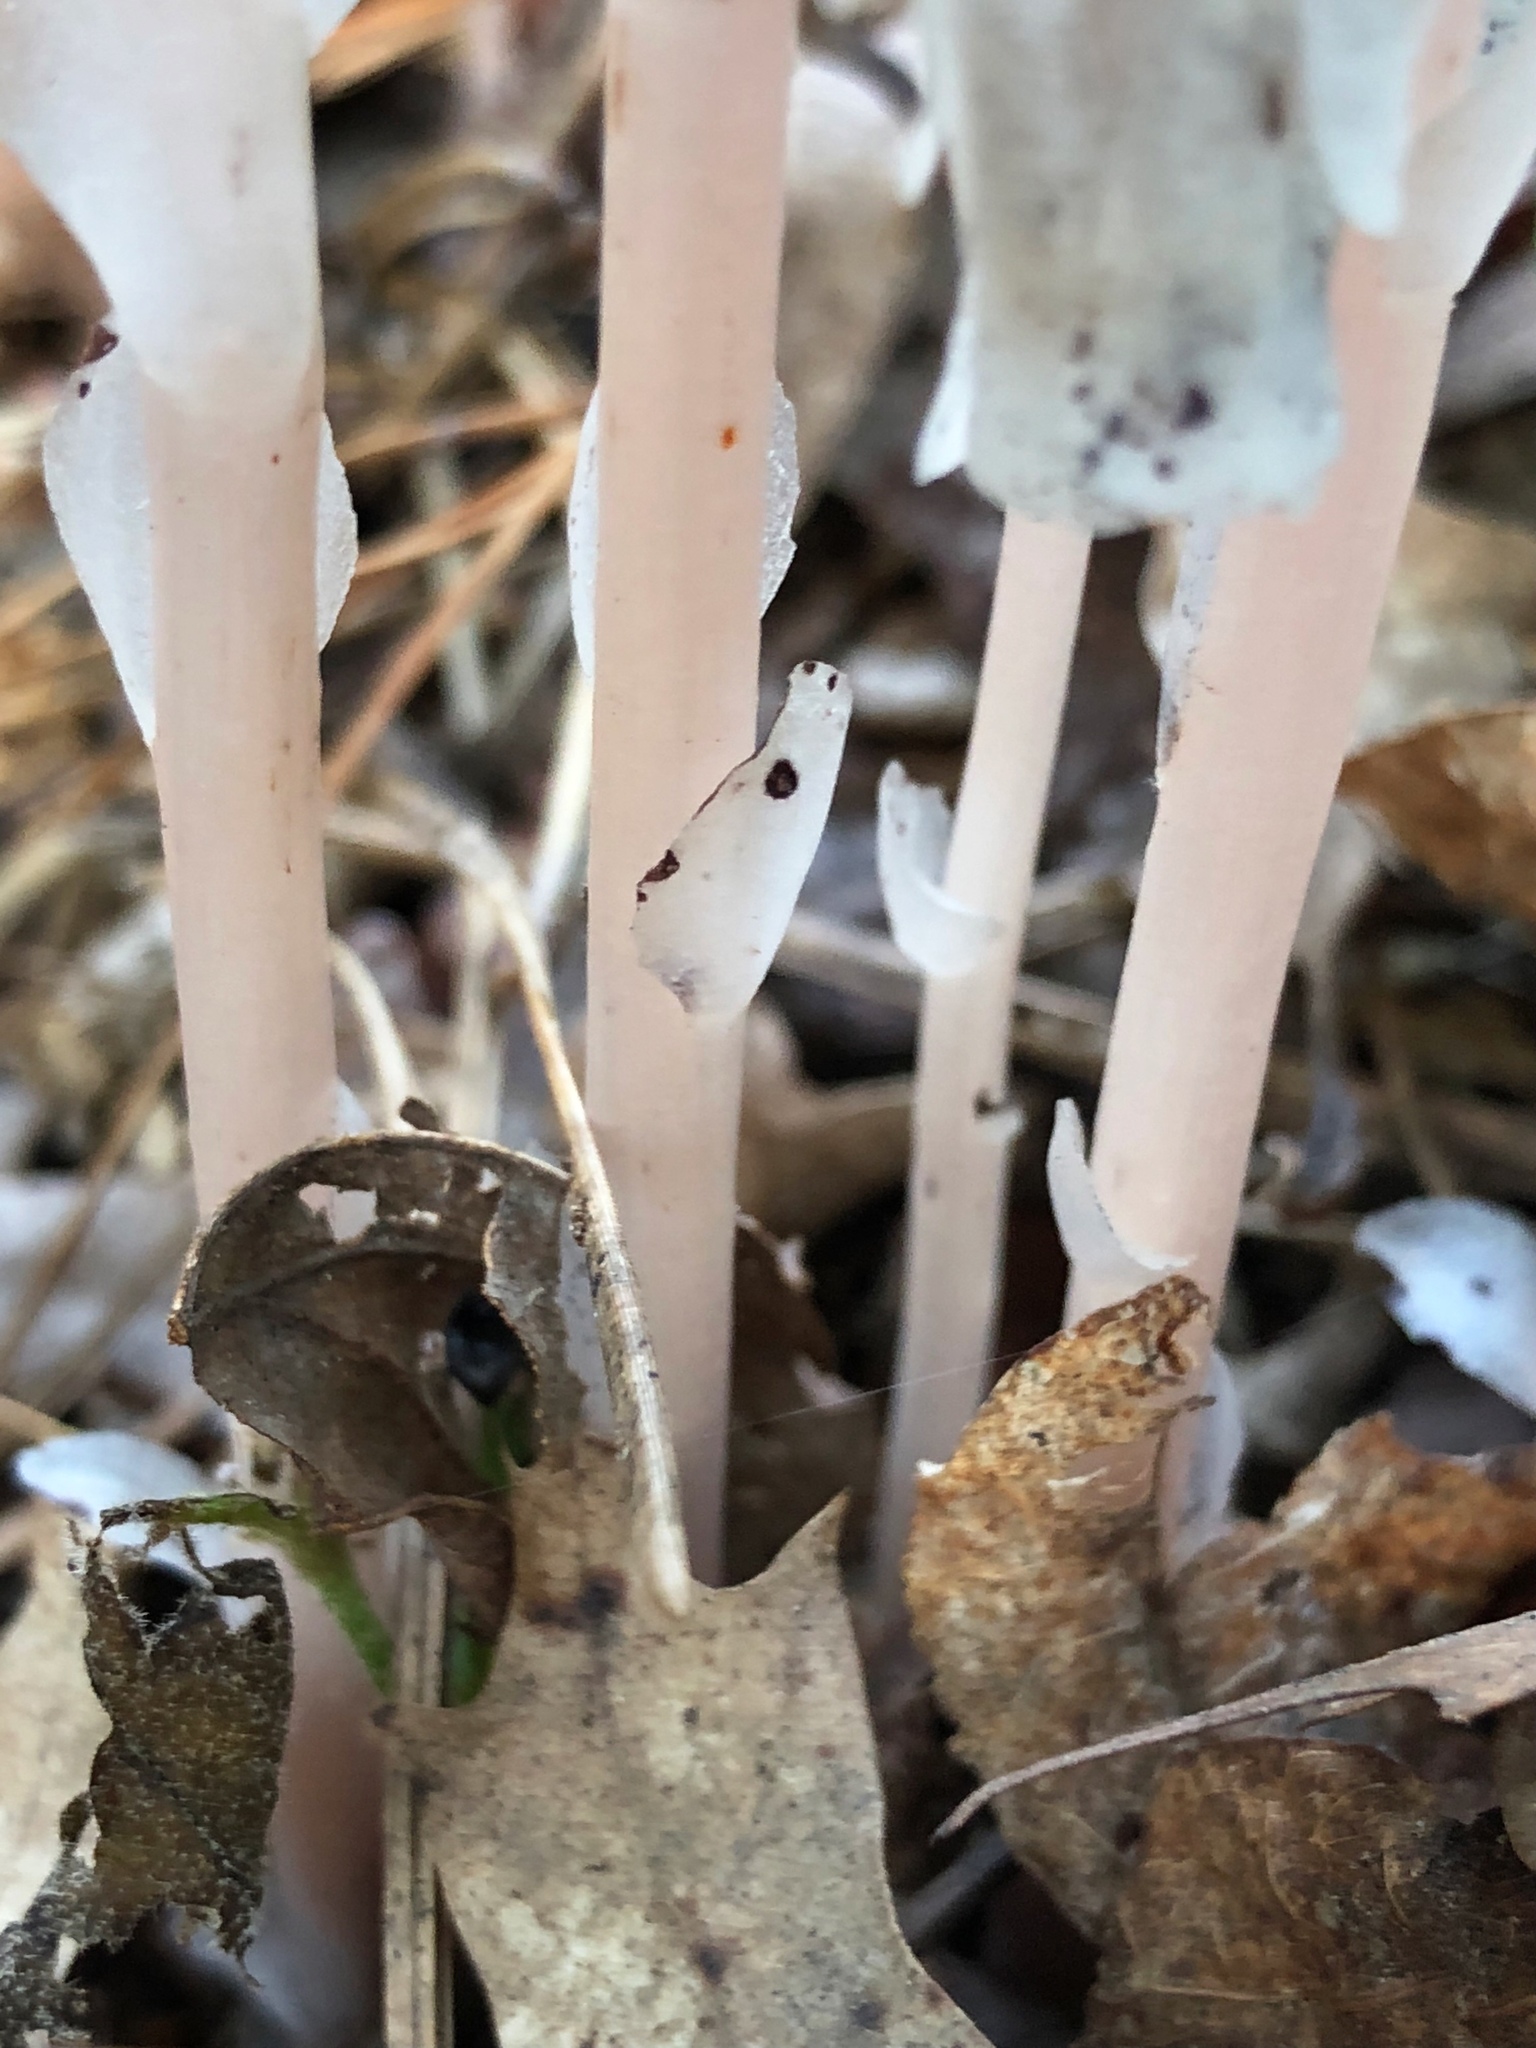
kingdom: Plantae
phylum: Tracheophyta
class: Magnoliopsida
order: Ericales
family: Ericaceae
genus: Monotropa
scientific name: Monotropa uniflora
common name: Convulsion root
